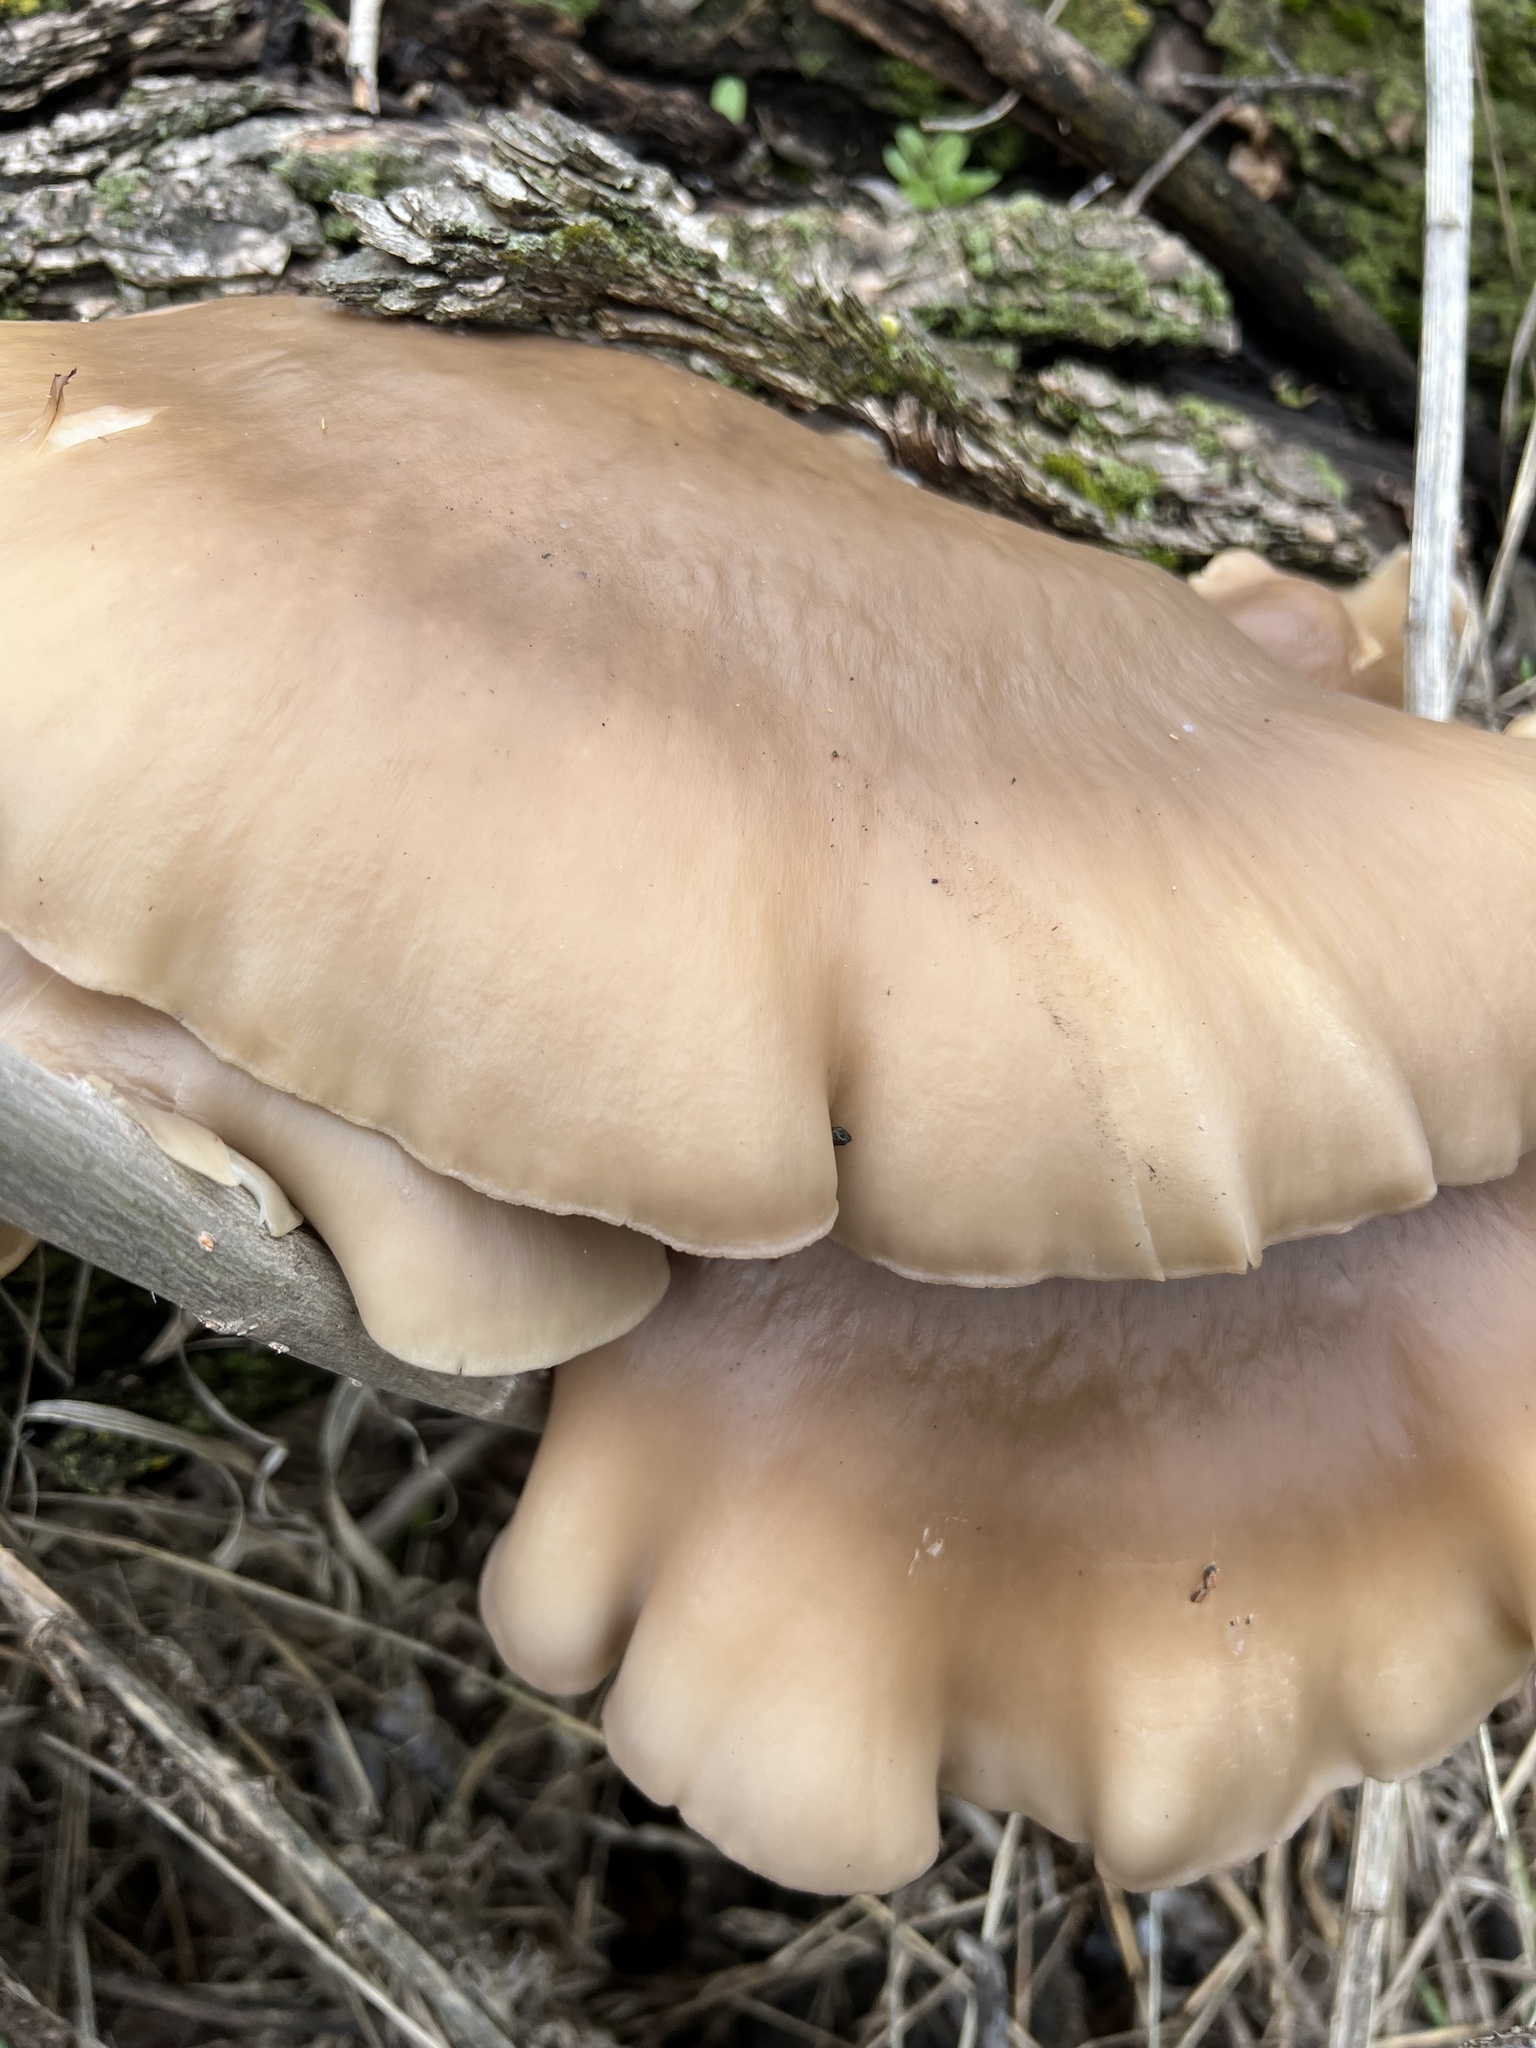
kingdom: Fungi
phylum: Basidiomycota
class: Agaricomycetes
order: Agaricales
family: Pleurotaceae
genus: Pleurotus
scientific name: Pleurotus ostreatus
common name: Oyster mushroom
